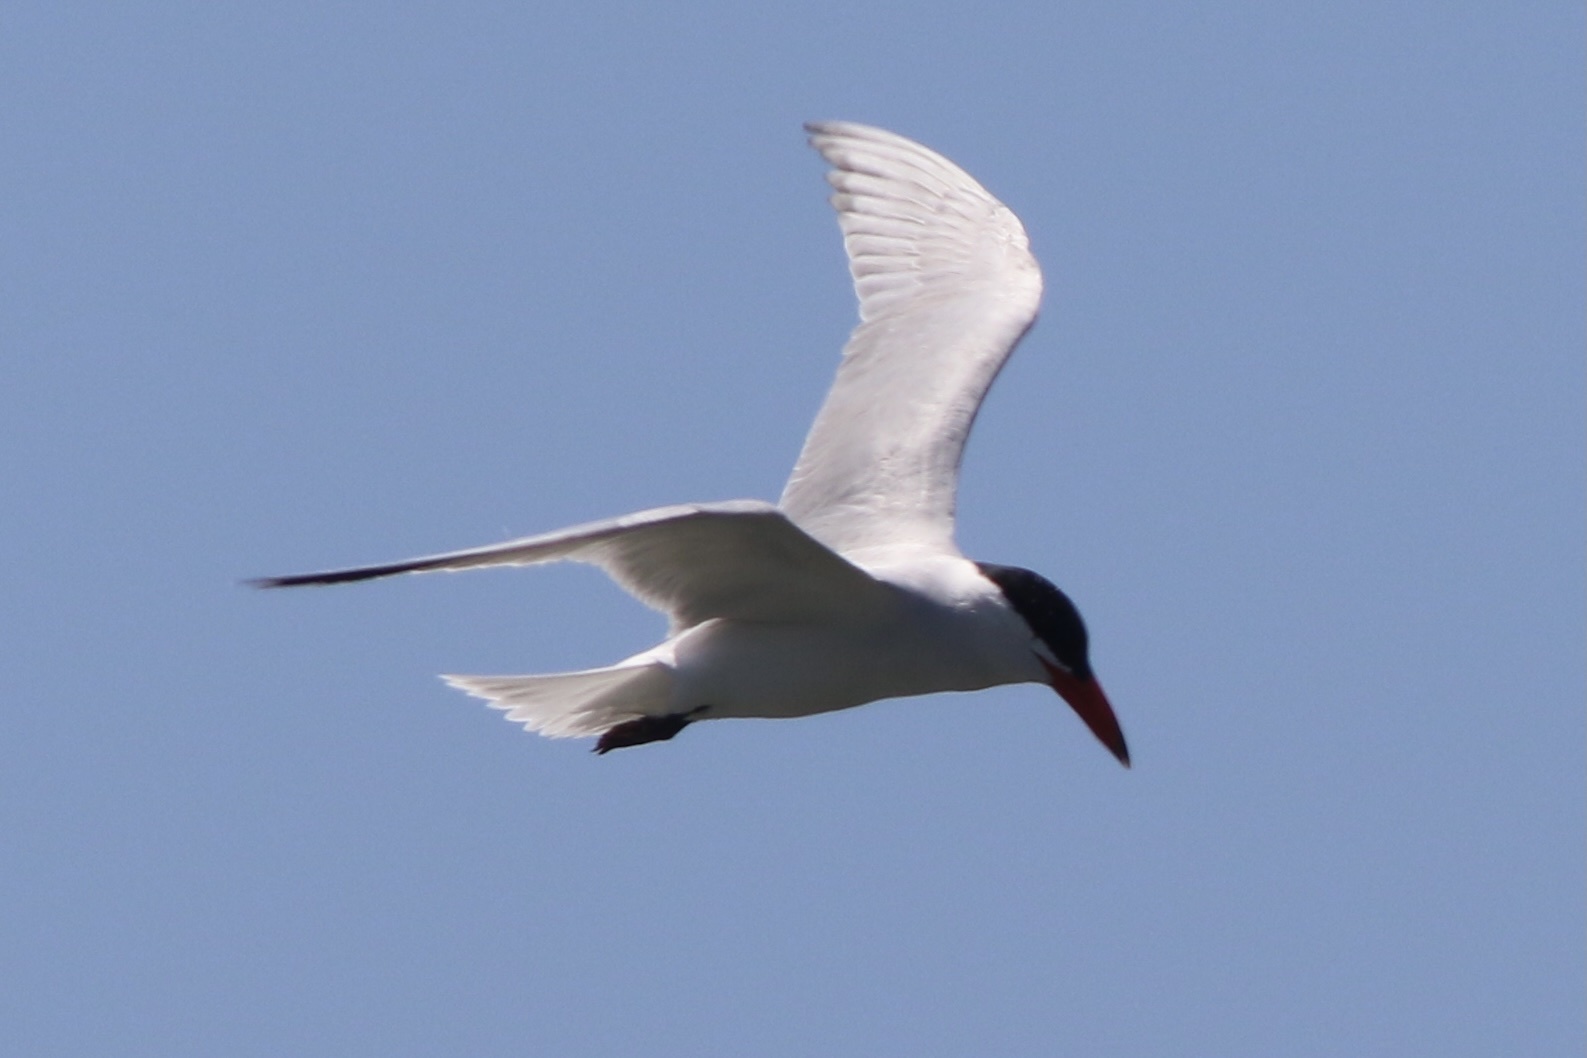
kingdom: Animalia
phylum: Chordata
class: Aves
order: Charadriiformes
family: Laridae
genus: Hydroprogne
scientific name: Hydroprogne caspia
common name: Caspian tern
